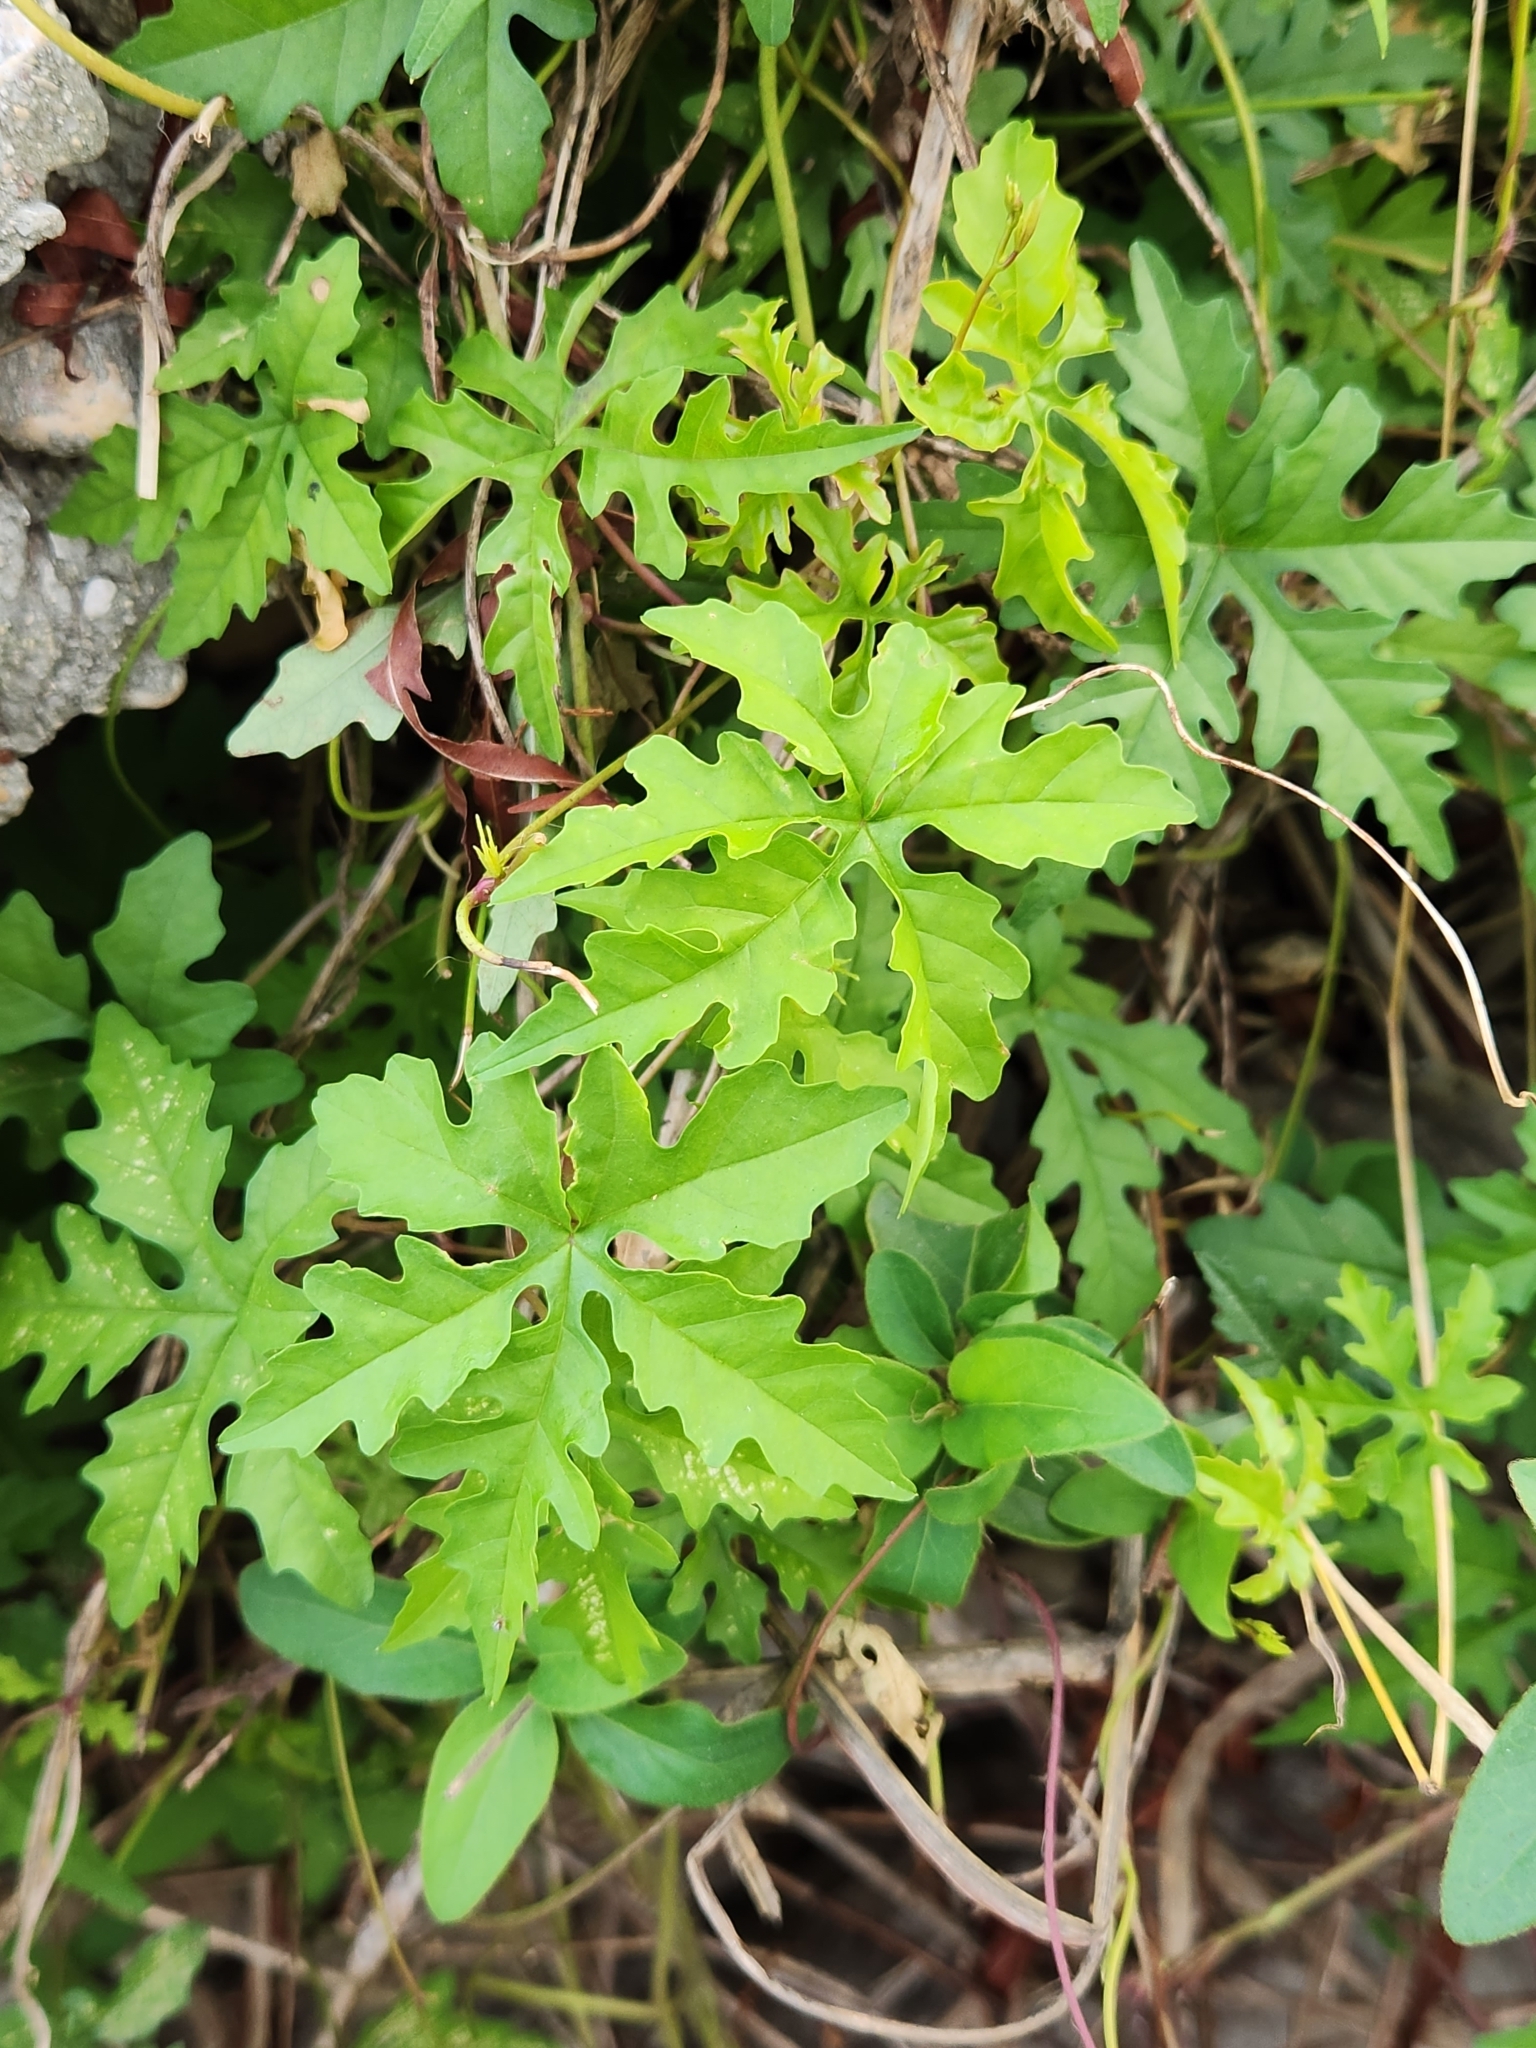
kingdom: Plantae
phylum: Tracheophyta
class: Magnoliopsida
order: Solanales
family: Convolvulaceae
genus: Distimake
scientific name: Distimake dissectus
